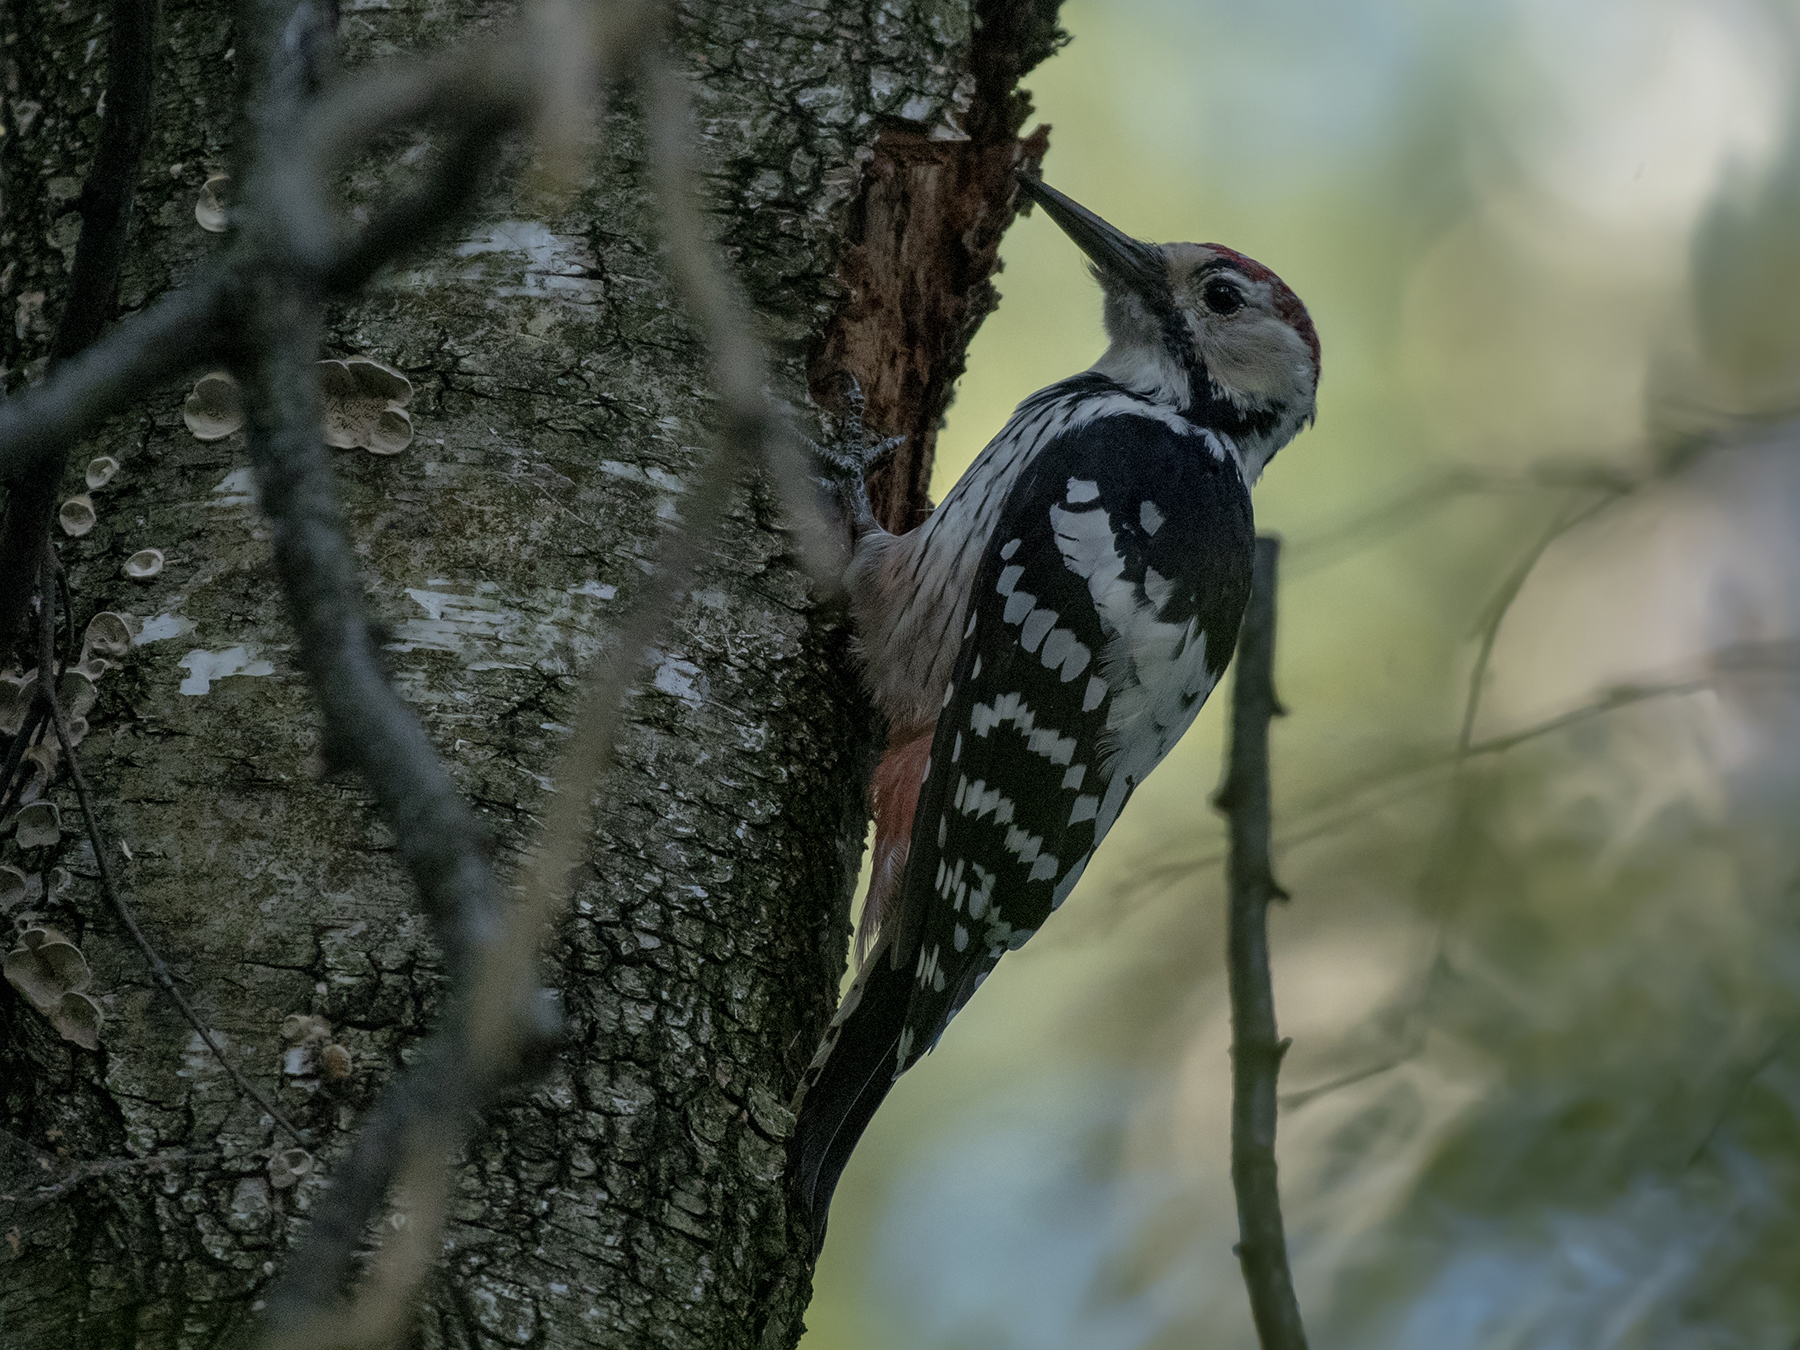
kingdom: Animalia
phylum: Chordata
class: Aves
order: Piciformes
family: Picidae
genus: Dendrocopos
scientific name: Dendrocopos leucotos
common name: White-backed woodpecker
